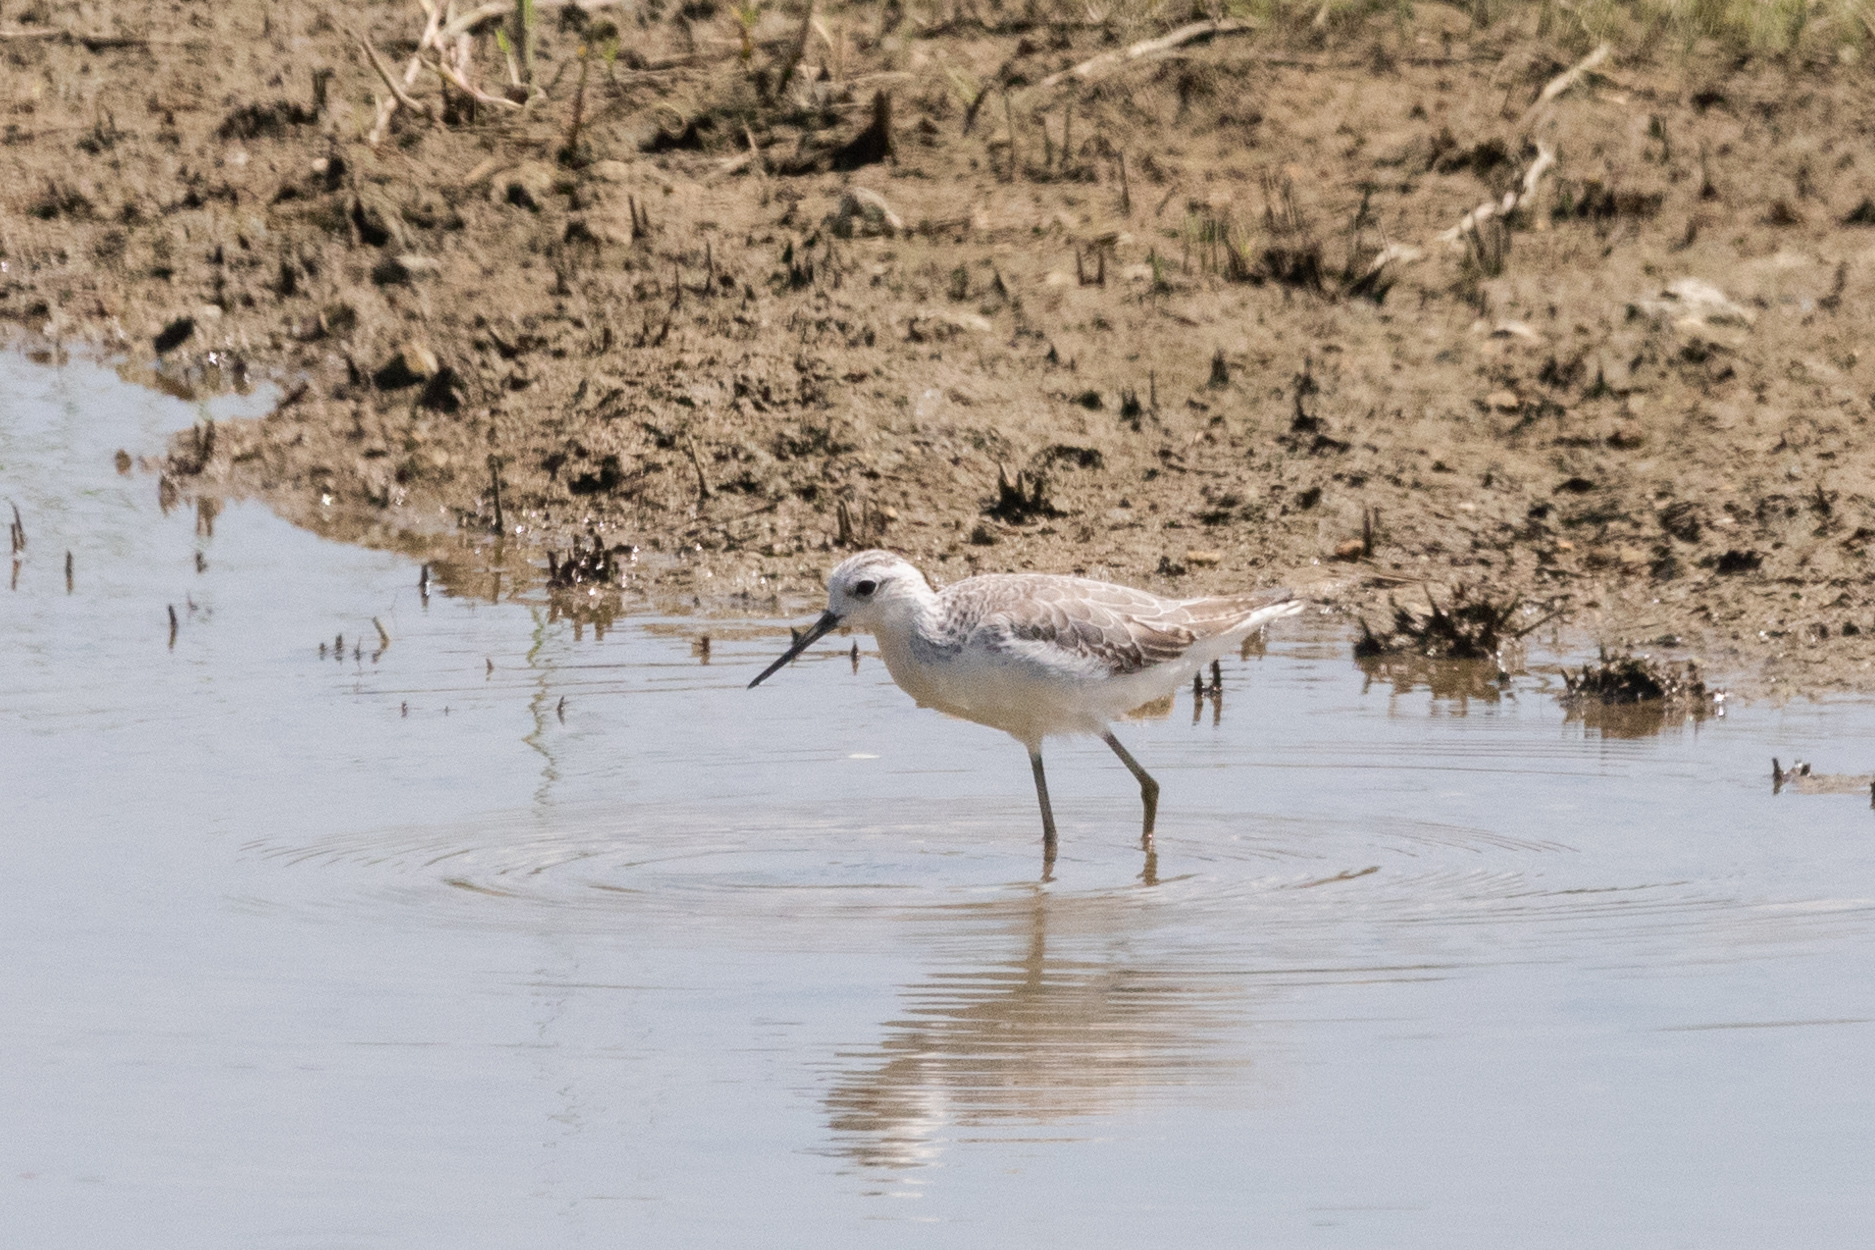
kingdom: Animalia
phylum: Chordata
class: Aves
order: Charadriiformes
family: Scolopacidae
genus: Tringa
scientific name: Tringa stagnatilis
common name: Marsh sandpiper
